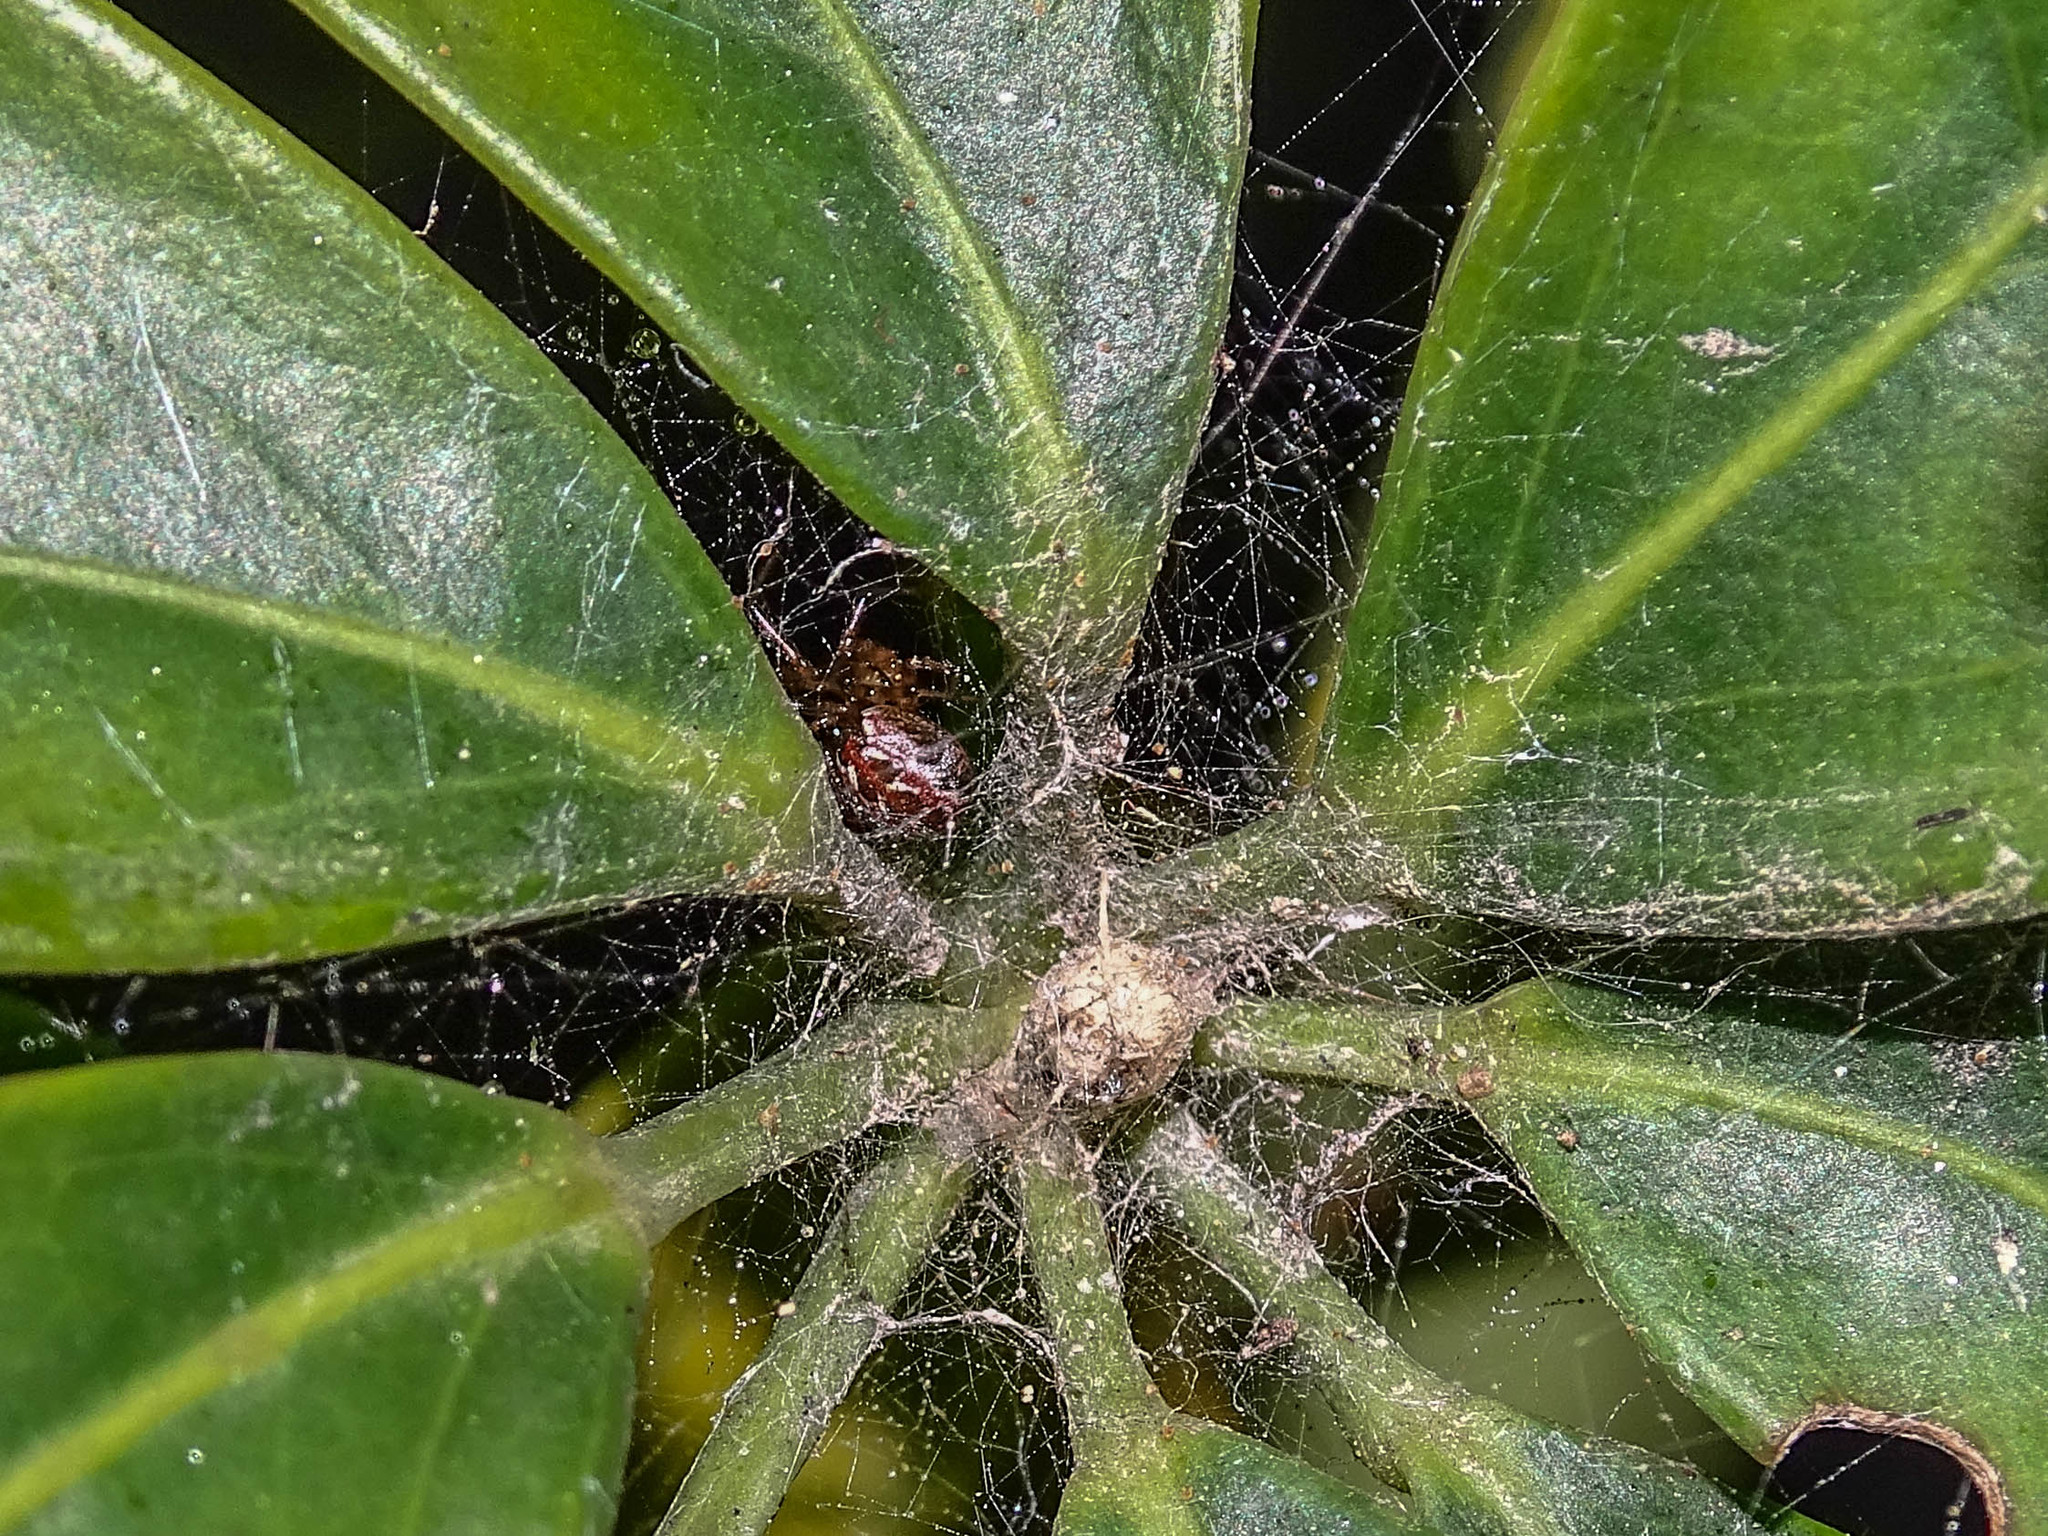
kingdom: Animalia
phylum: Arthropoda
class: Arachnida
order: Araneae
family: Theridiidae
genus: Kochiura
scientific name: Kochiura aulica
